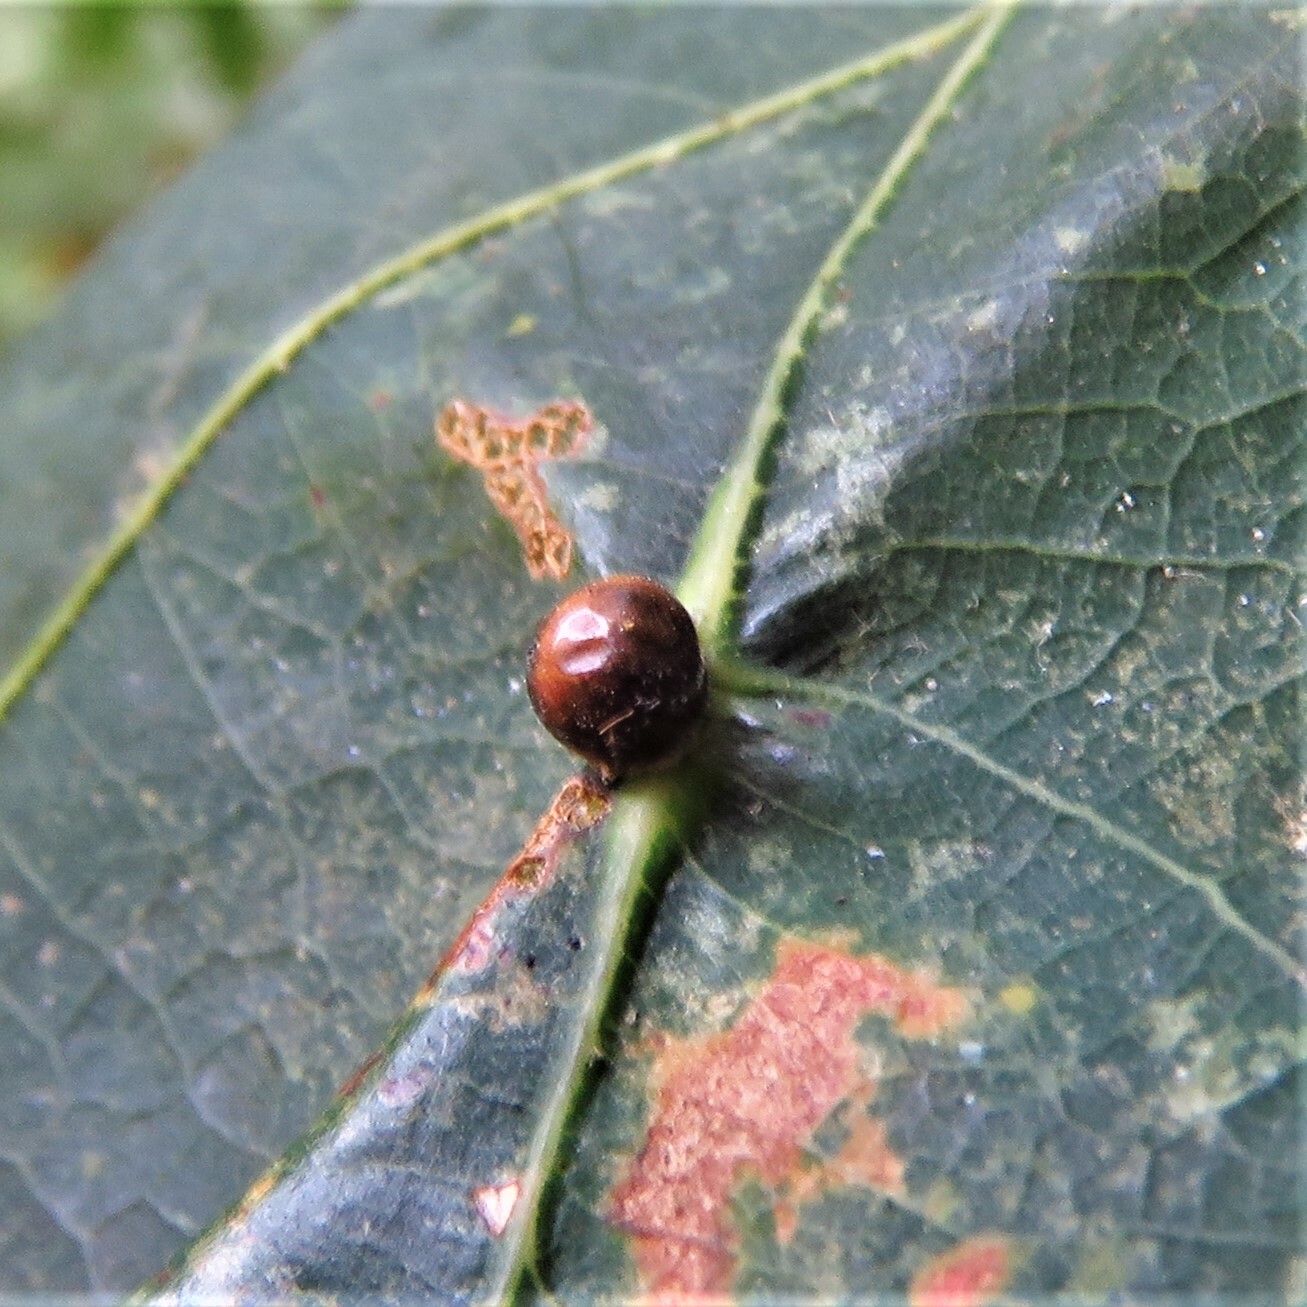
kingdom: Animalia
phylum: Arthropoda
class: Insecta
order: Hemiptera
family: Kermesidae
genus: Nanokermes
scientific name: Nanokermes folium
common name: Leaf kermes
